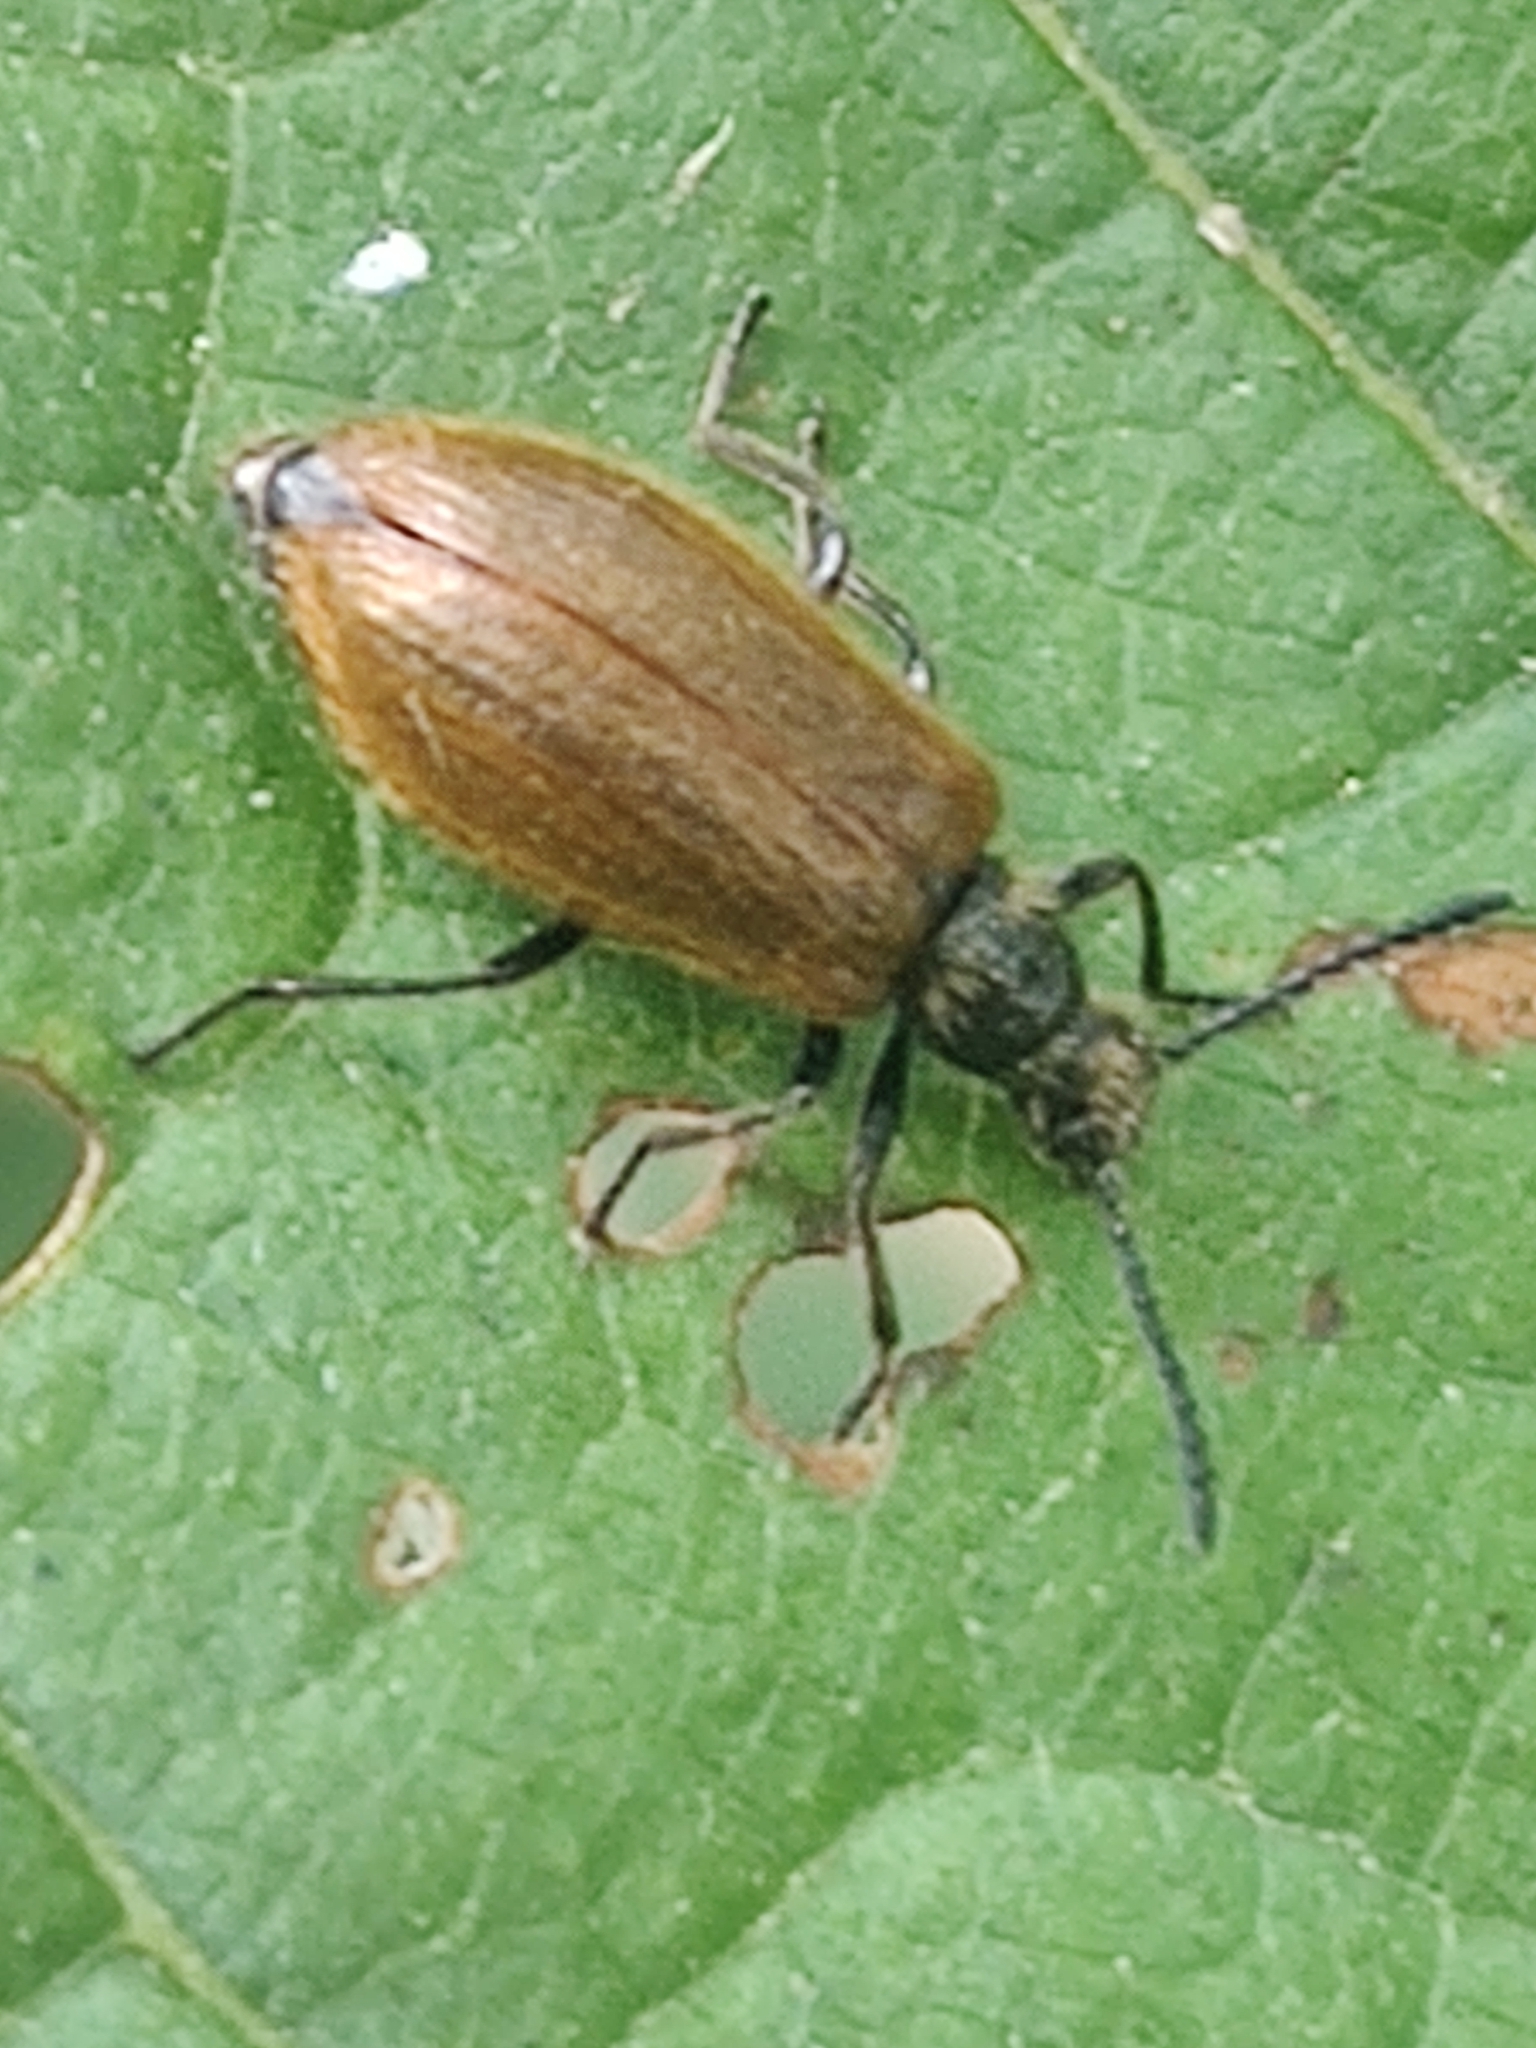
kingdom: Animalia
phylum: Arthropoda
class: Insecta
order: Coleoptera
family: Tenebrionidae
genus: Lagria
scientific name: Lagria hirta
